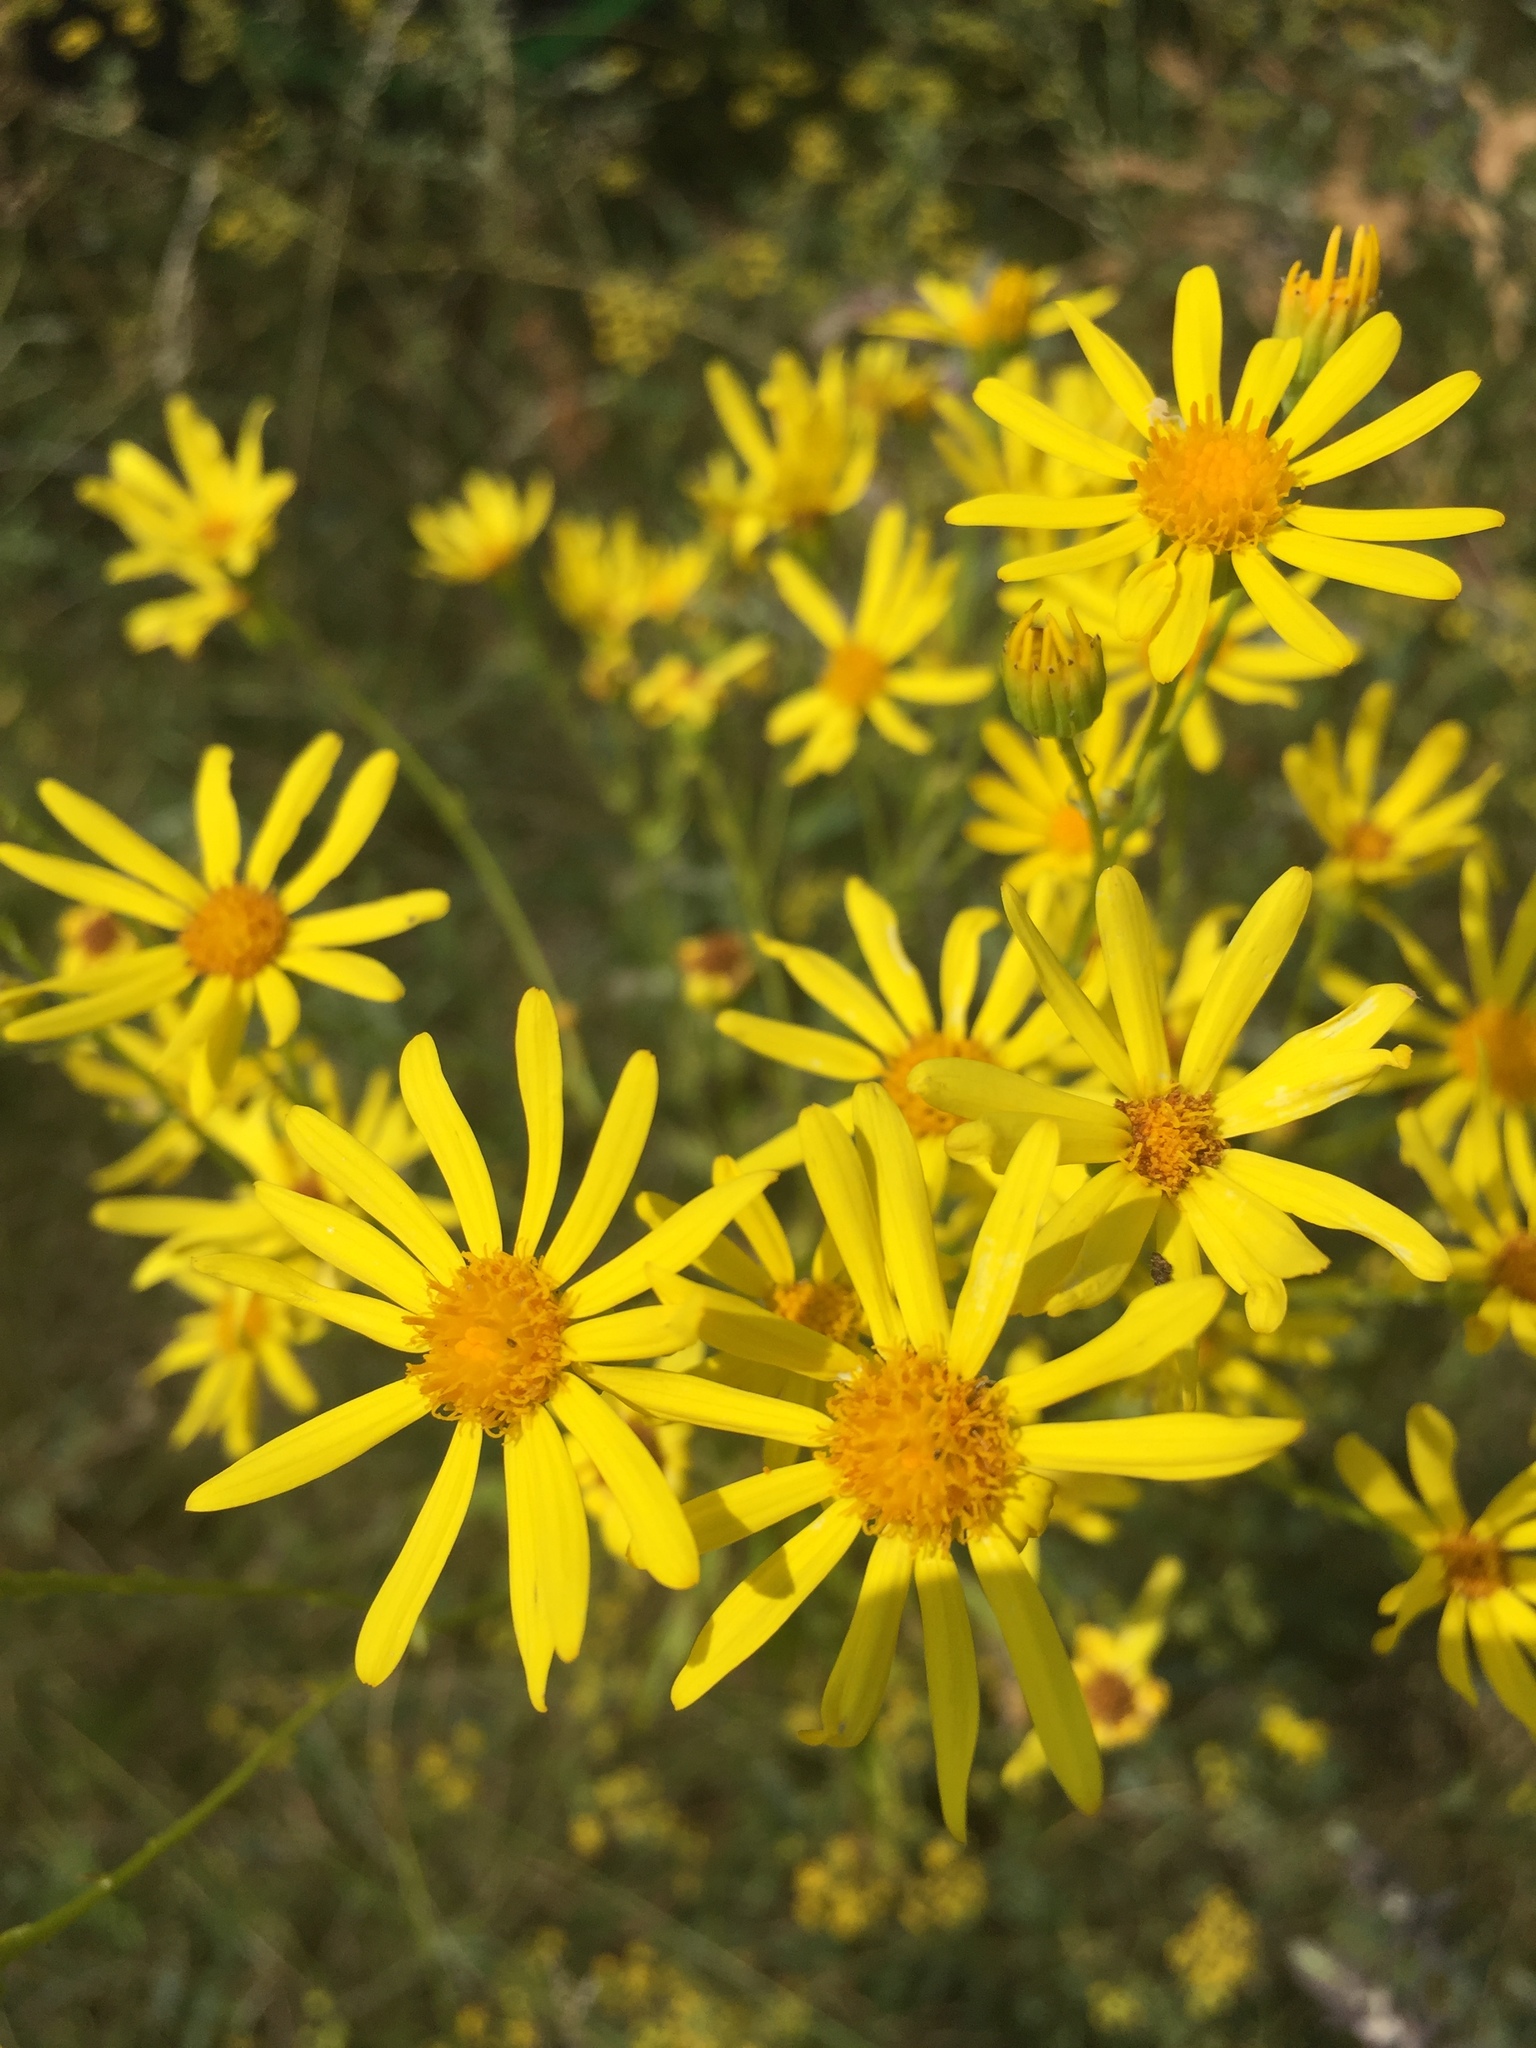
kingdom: Plantae
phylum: Tracheophyta
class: Magnoliopsida
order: Asterales
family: Asteraceae
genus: Jacobaea
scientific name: Jacobaea vulgaris
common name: Stinking willie
